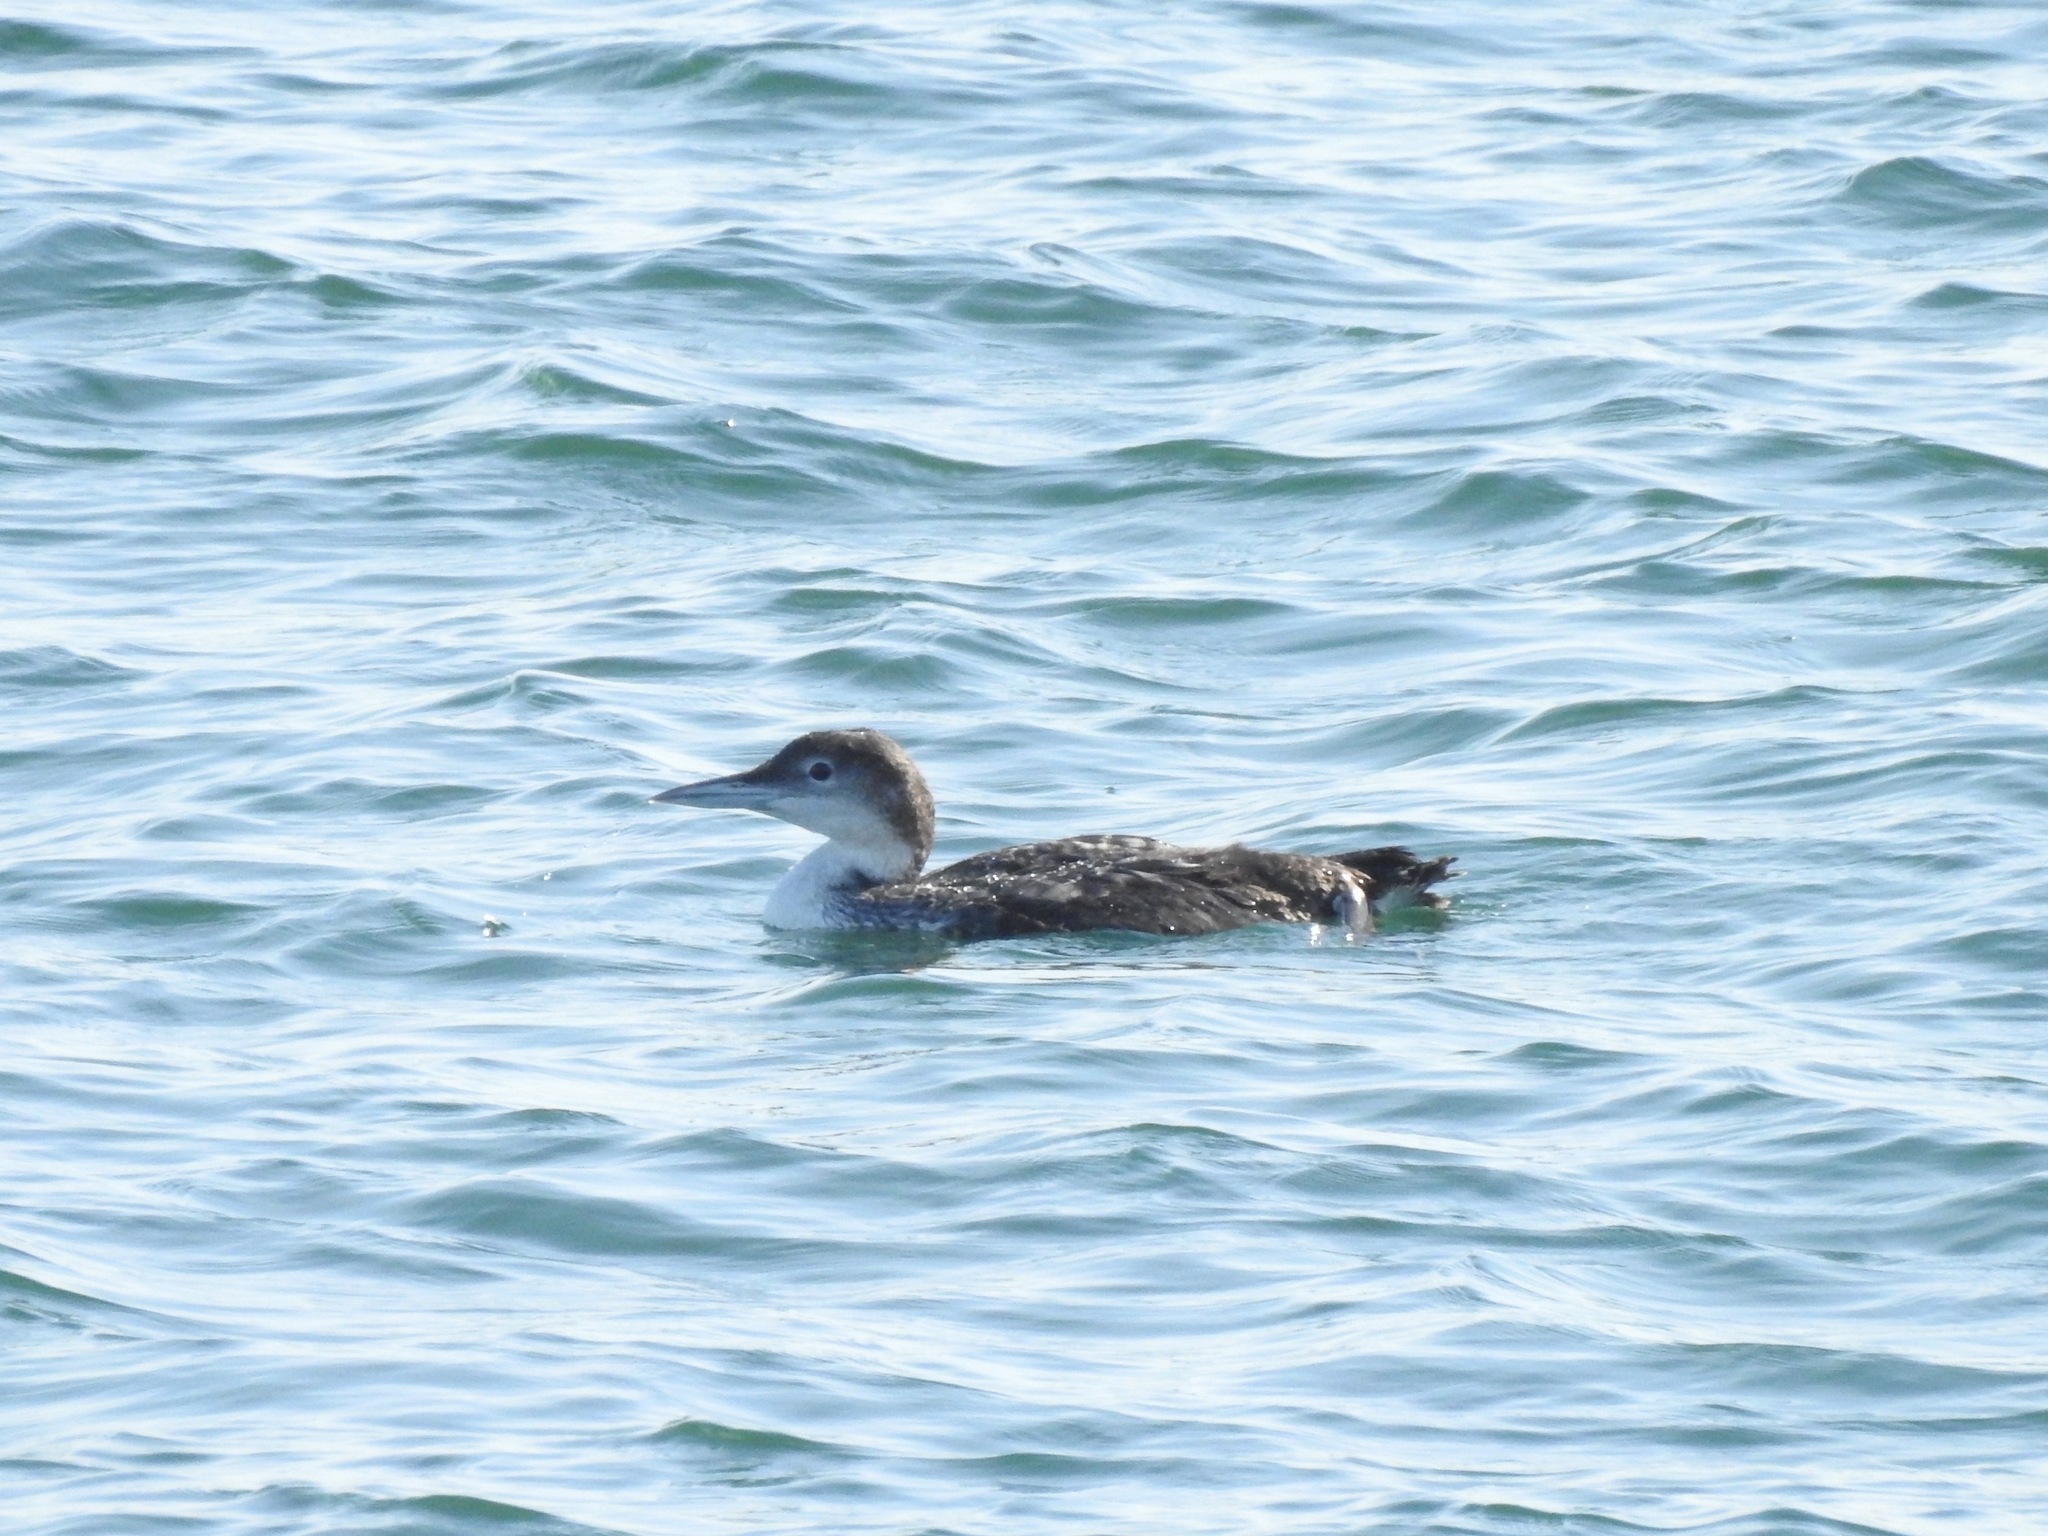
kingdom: Animalia
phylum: Chordata
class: Aves
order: Gaviiformes
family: Gaviidae
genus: Gavia
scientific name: Gavia immer
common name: Common loon
